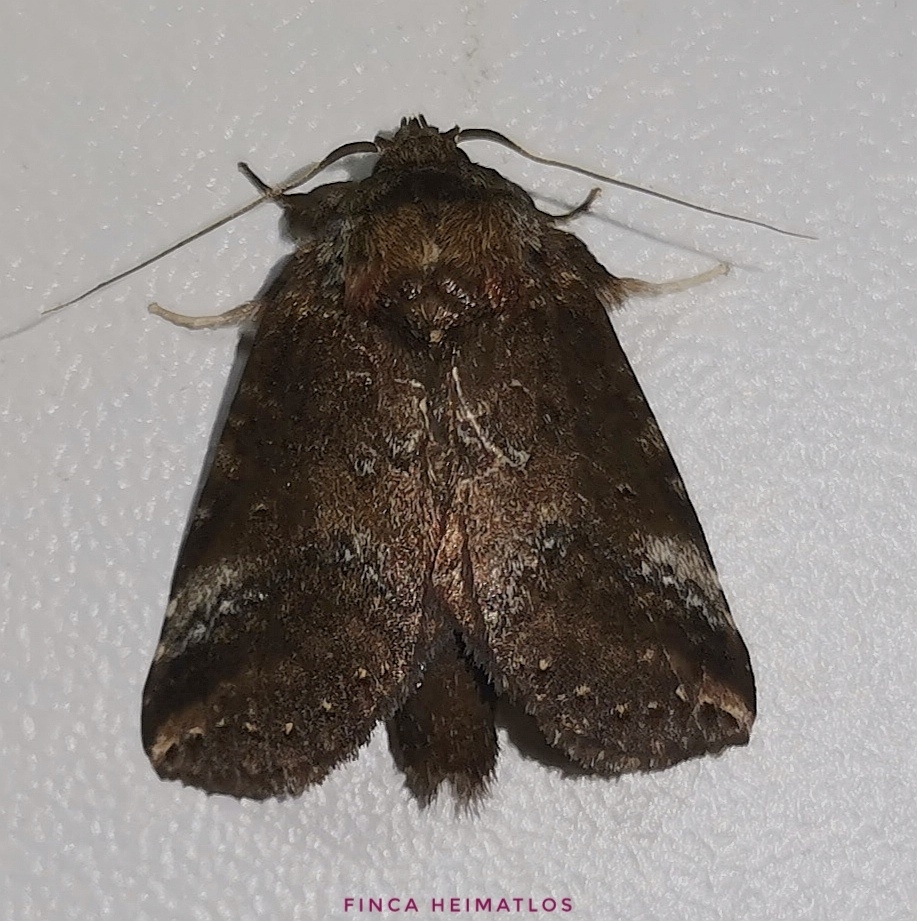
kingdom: Animalia
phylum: Arthropoda
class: Insecta
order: Lepidoptera
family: Notodontidae
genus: Phastia
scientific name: Phastia alcimede
